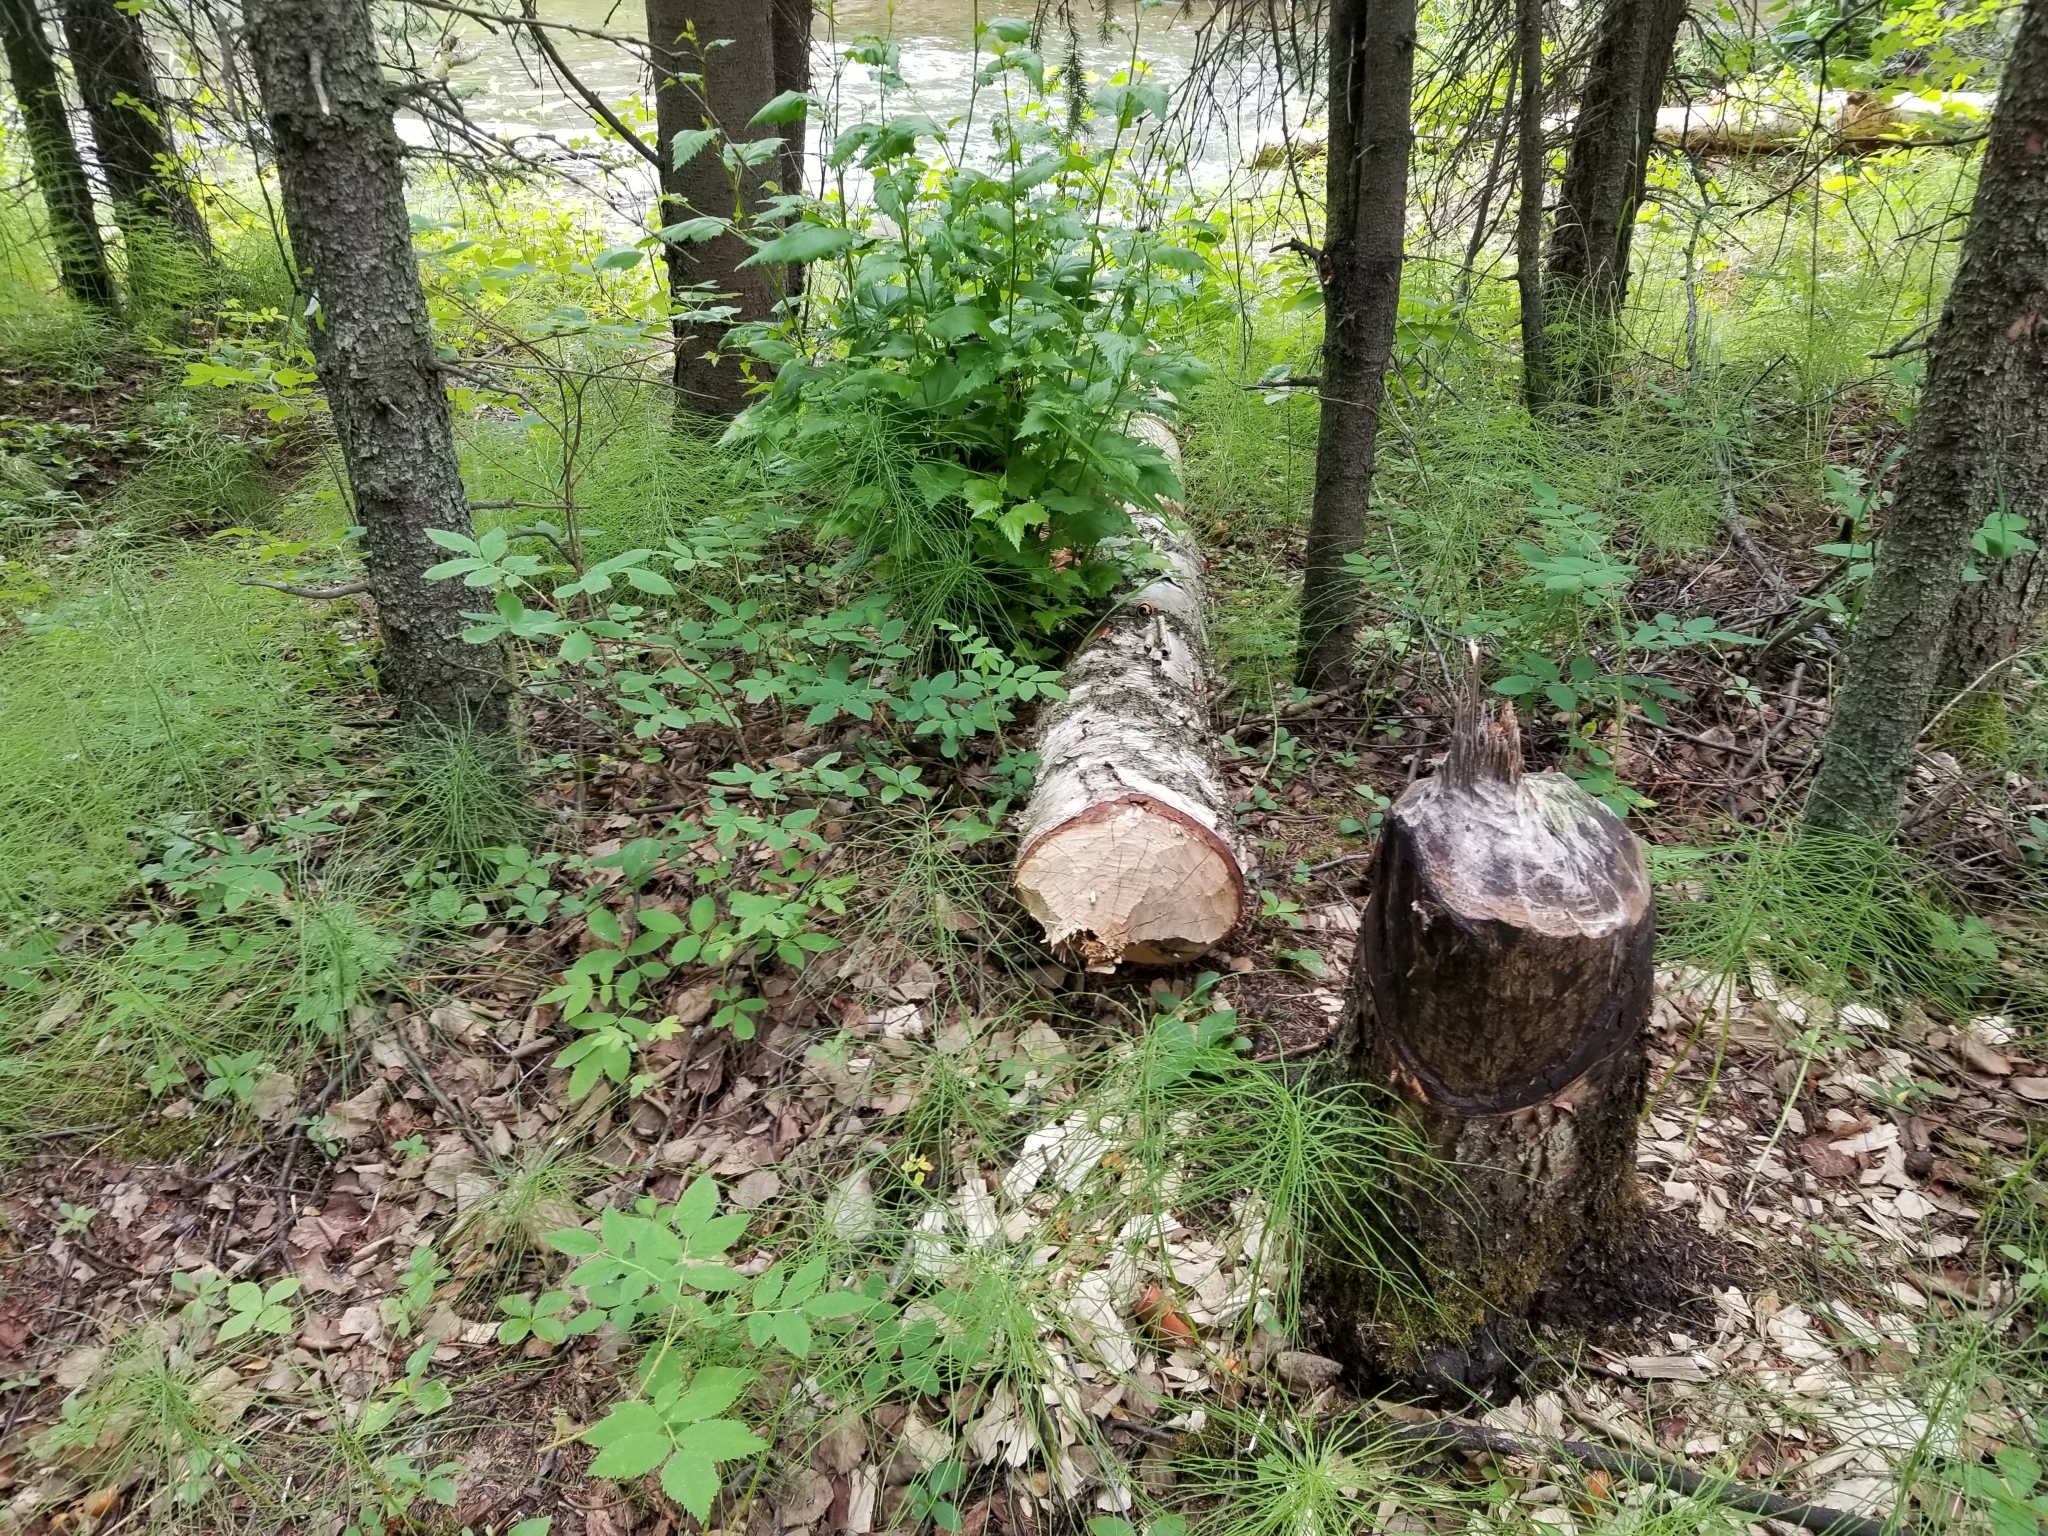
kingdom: Animalia
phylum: Chordata
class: Mammalia
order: Rodentia
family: Castoridae
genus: Castor
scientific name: Castor canadensis
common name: American beaver
